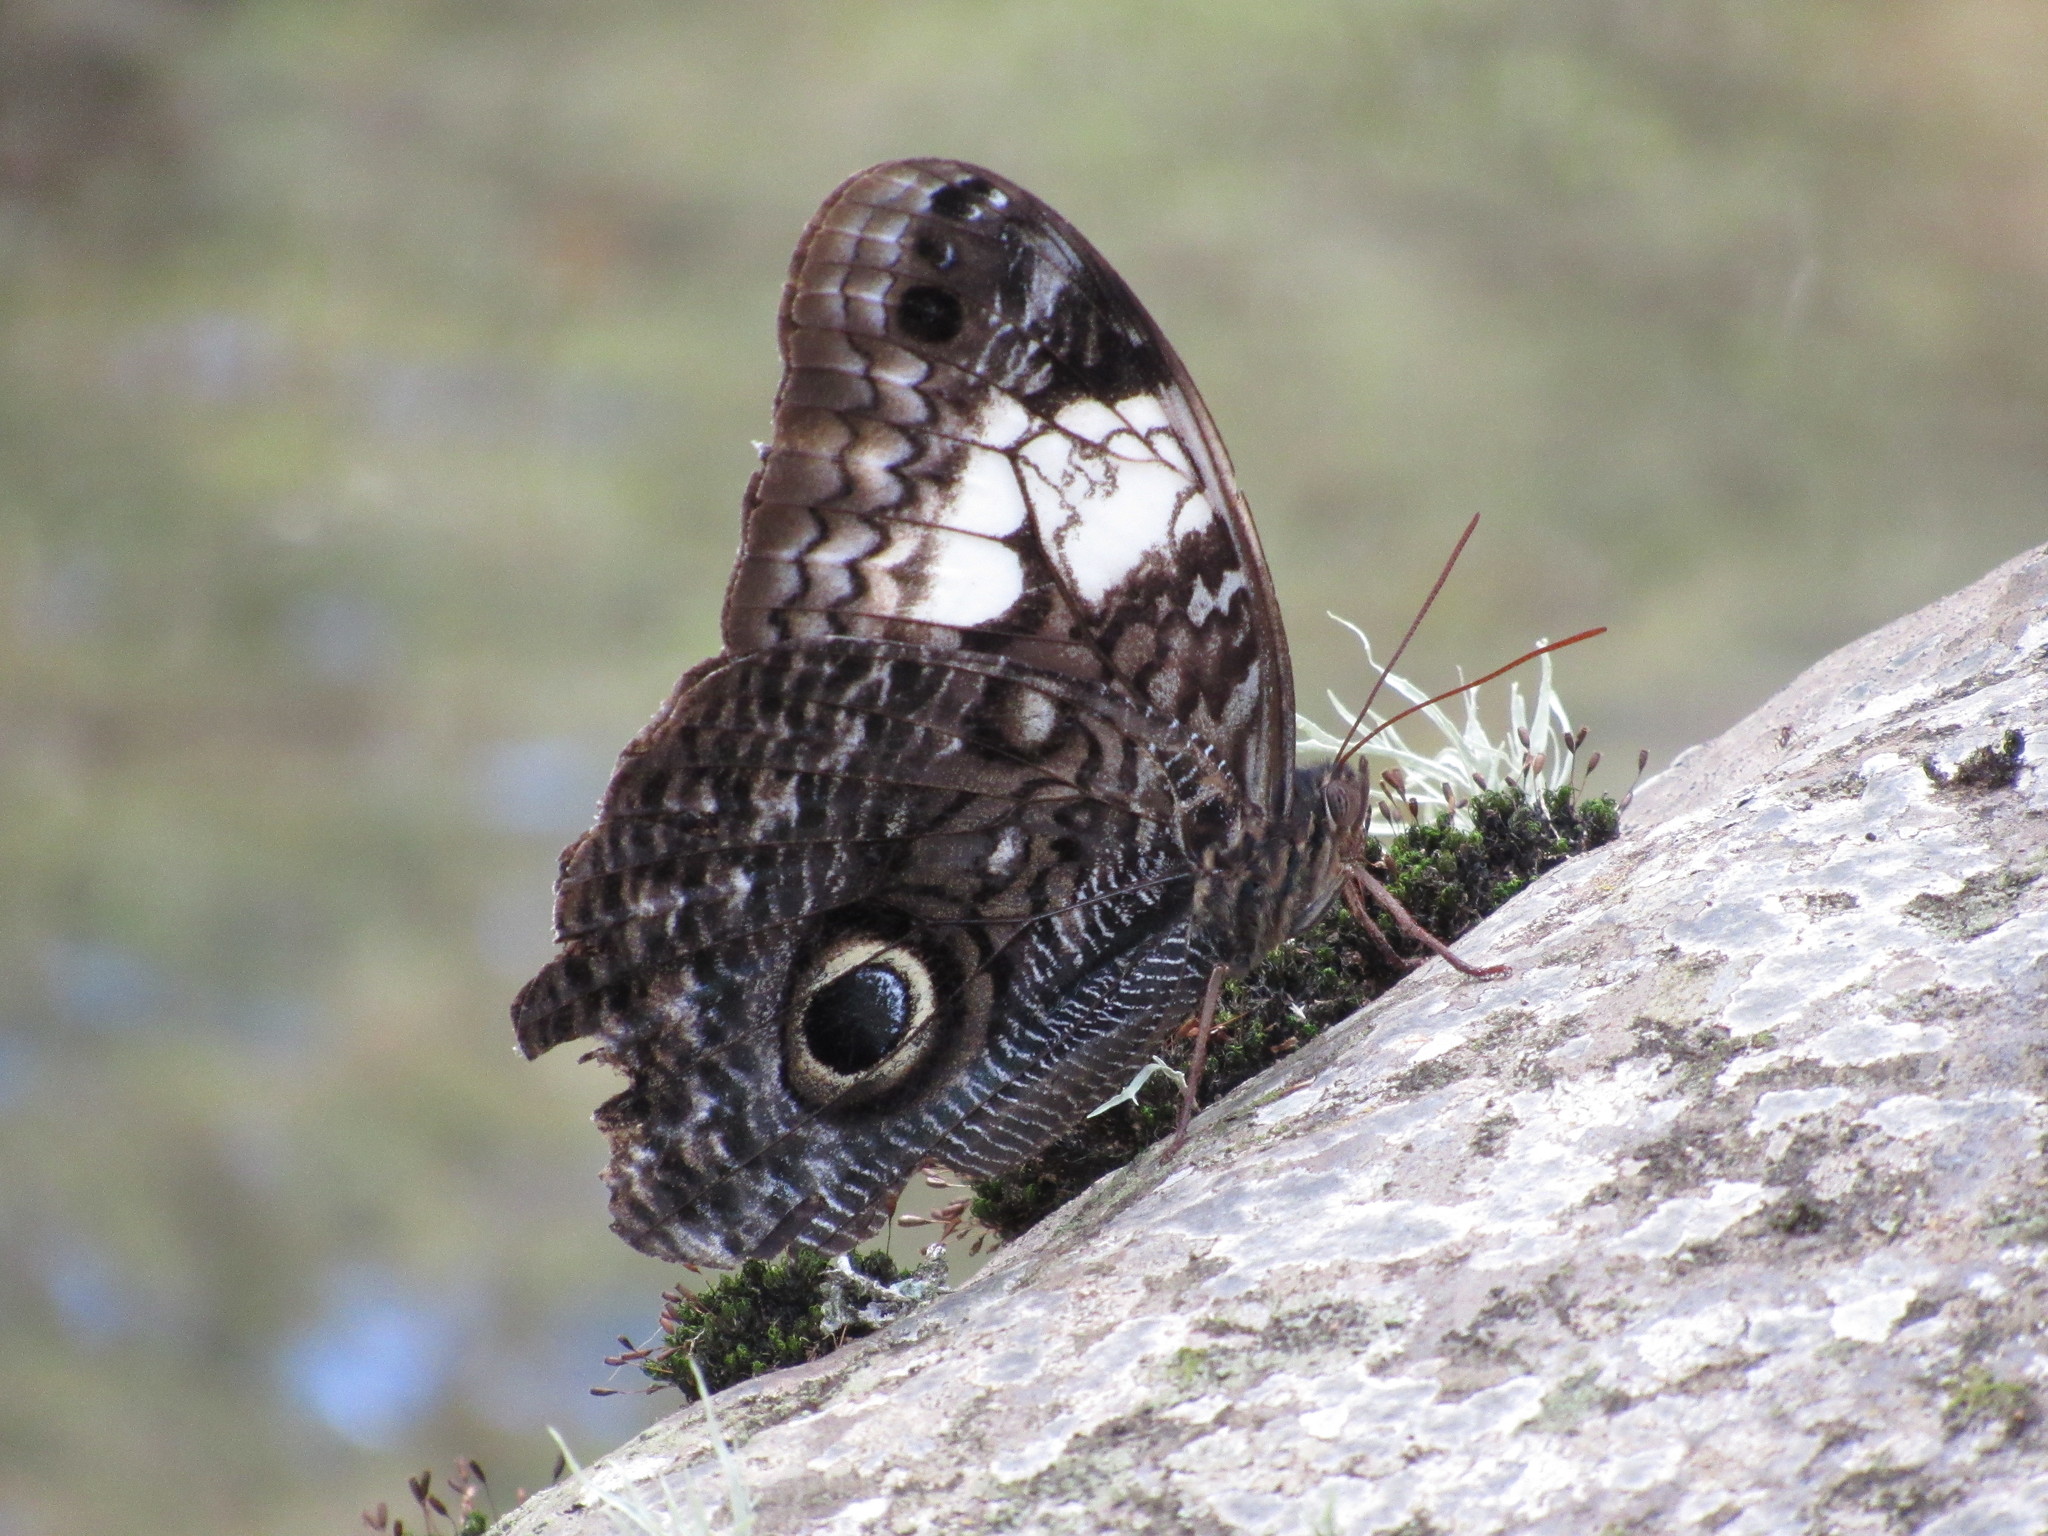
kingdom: Animalia
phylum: Arthropoda
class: Insecta
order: Lepidoptera
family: Nymphalidae
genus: Caligo
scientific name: Caligo martia
